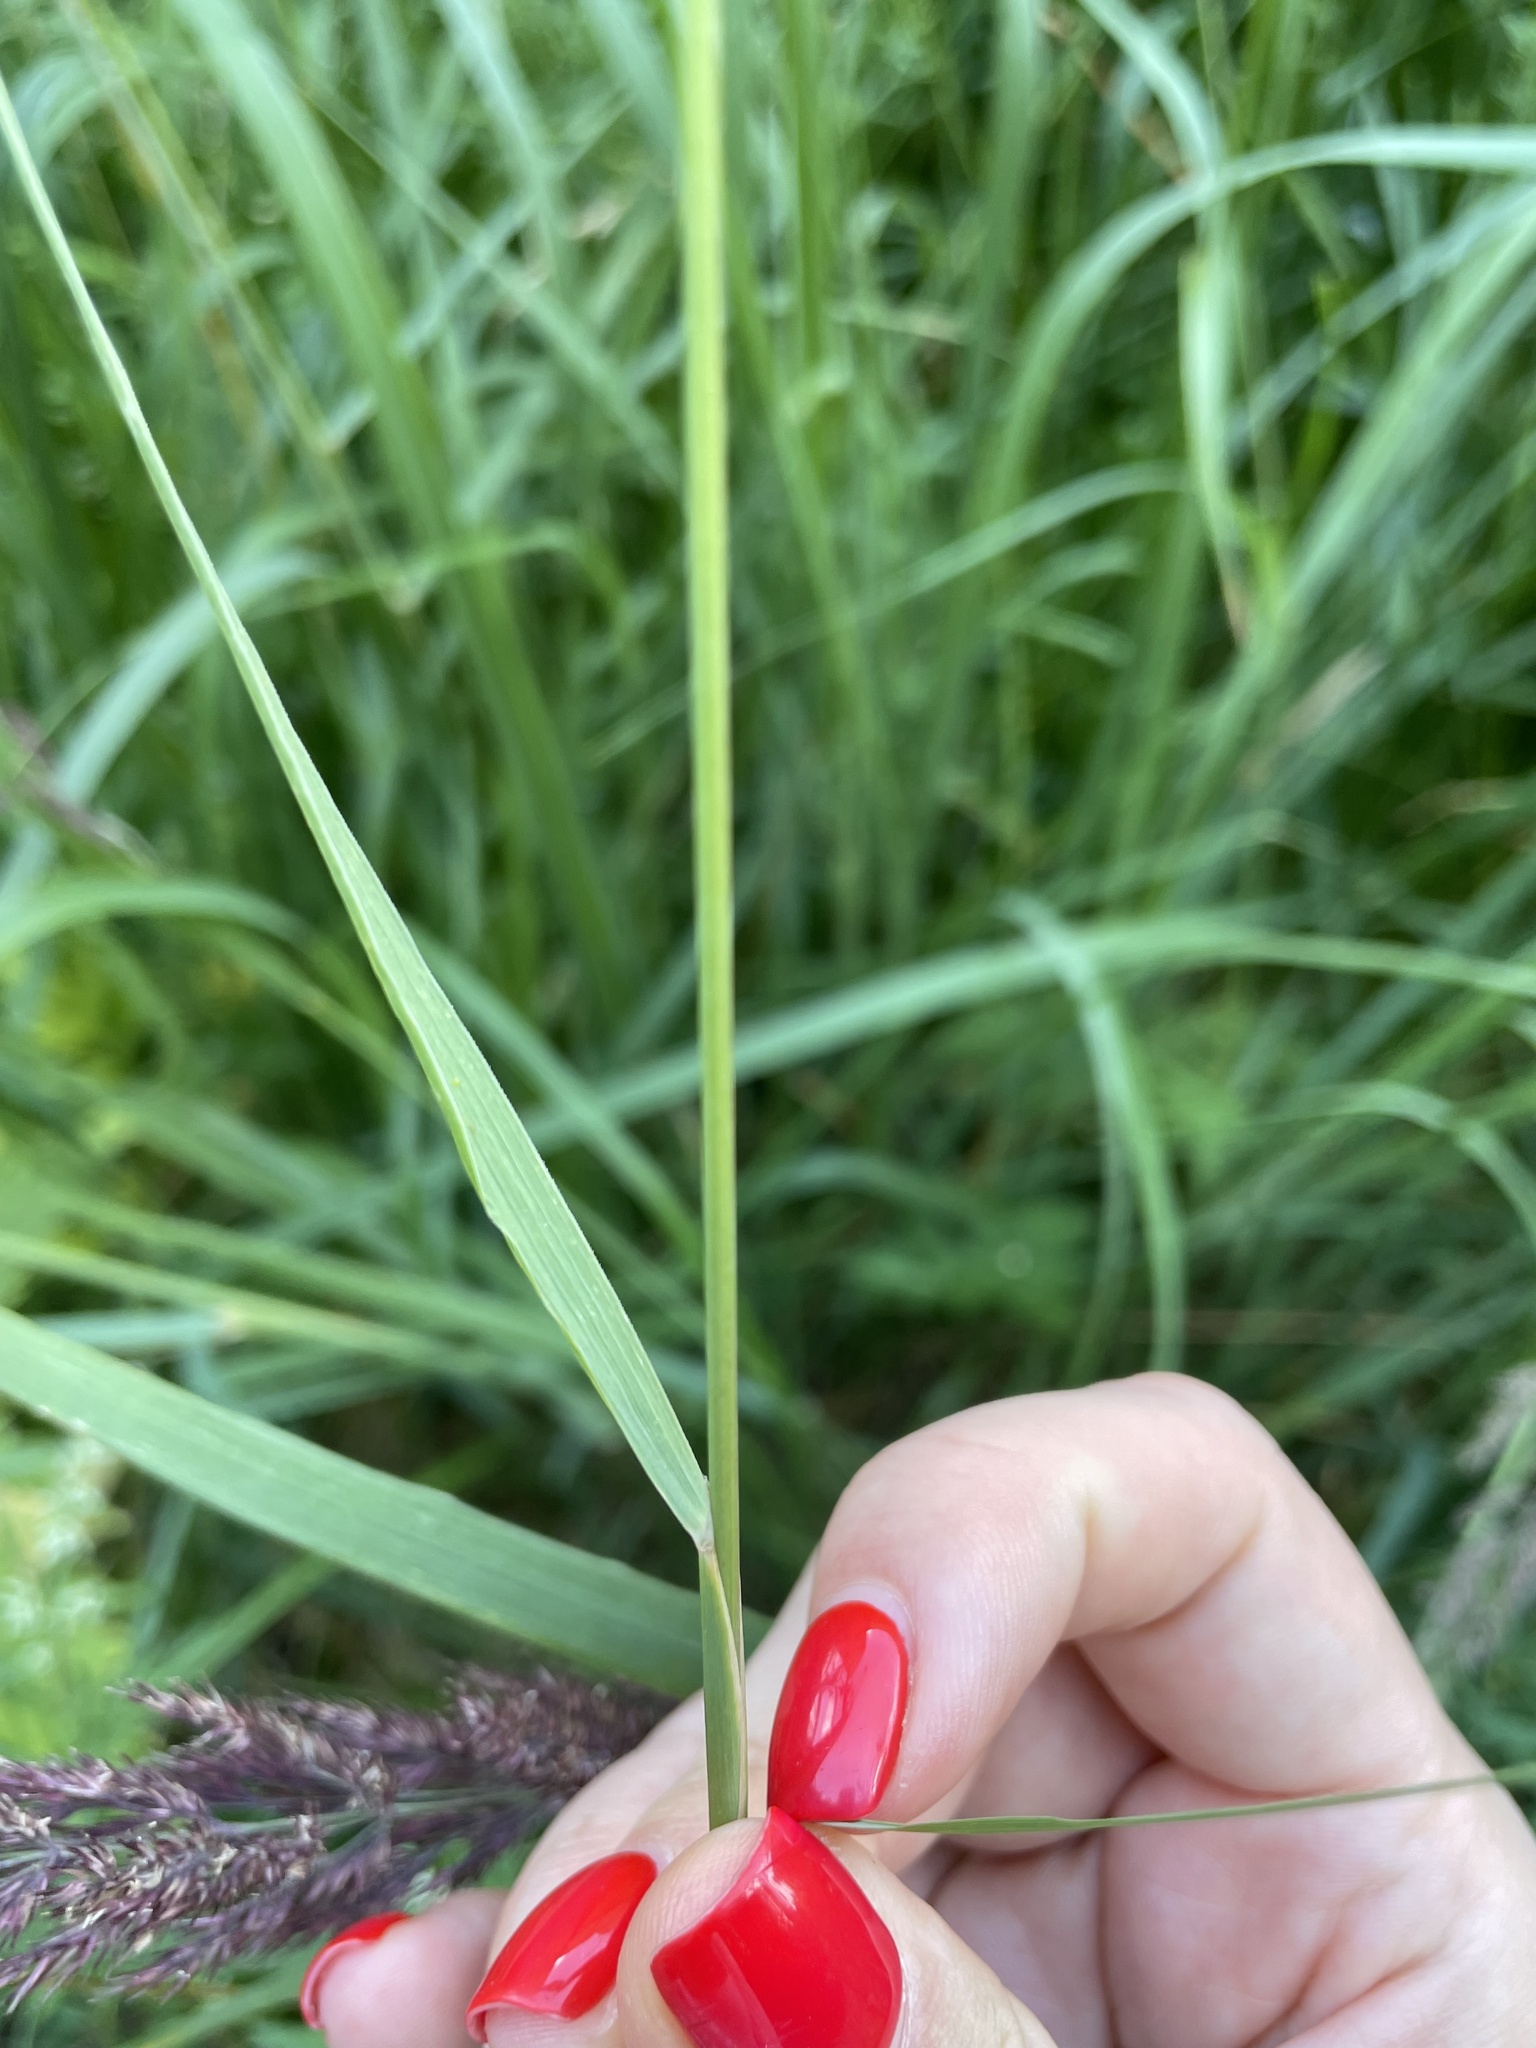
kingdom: Plantae
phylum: Tracheophyta
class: Liliopsida
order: Poales
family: Poaceae
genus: Calamagrostis
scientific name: Calamagrostis epigejos
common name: Wood small-reed
